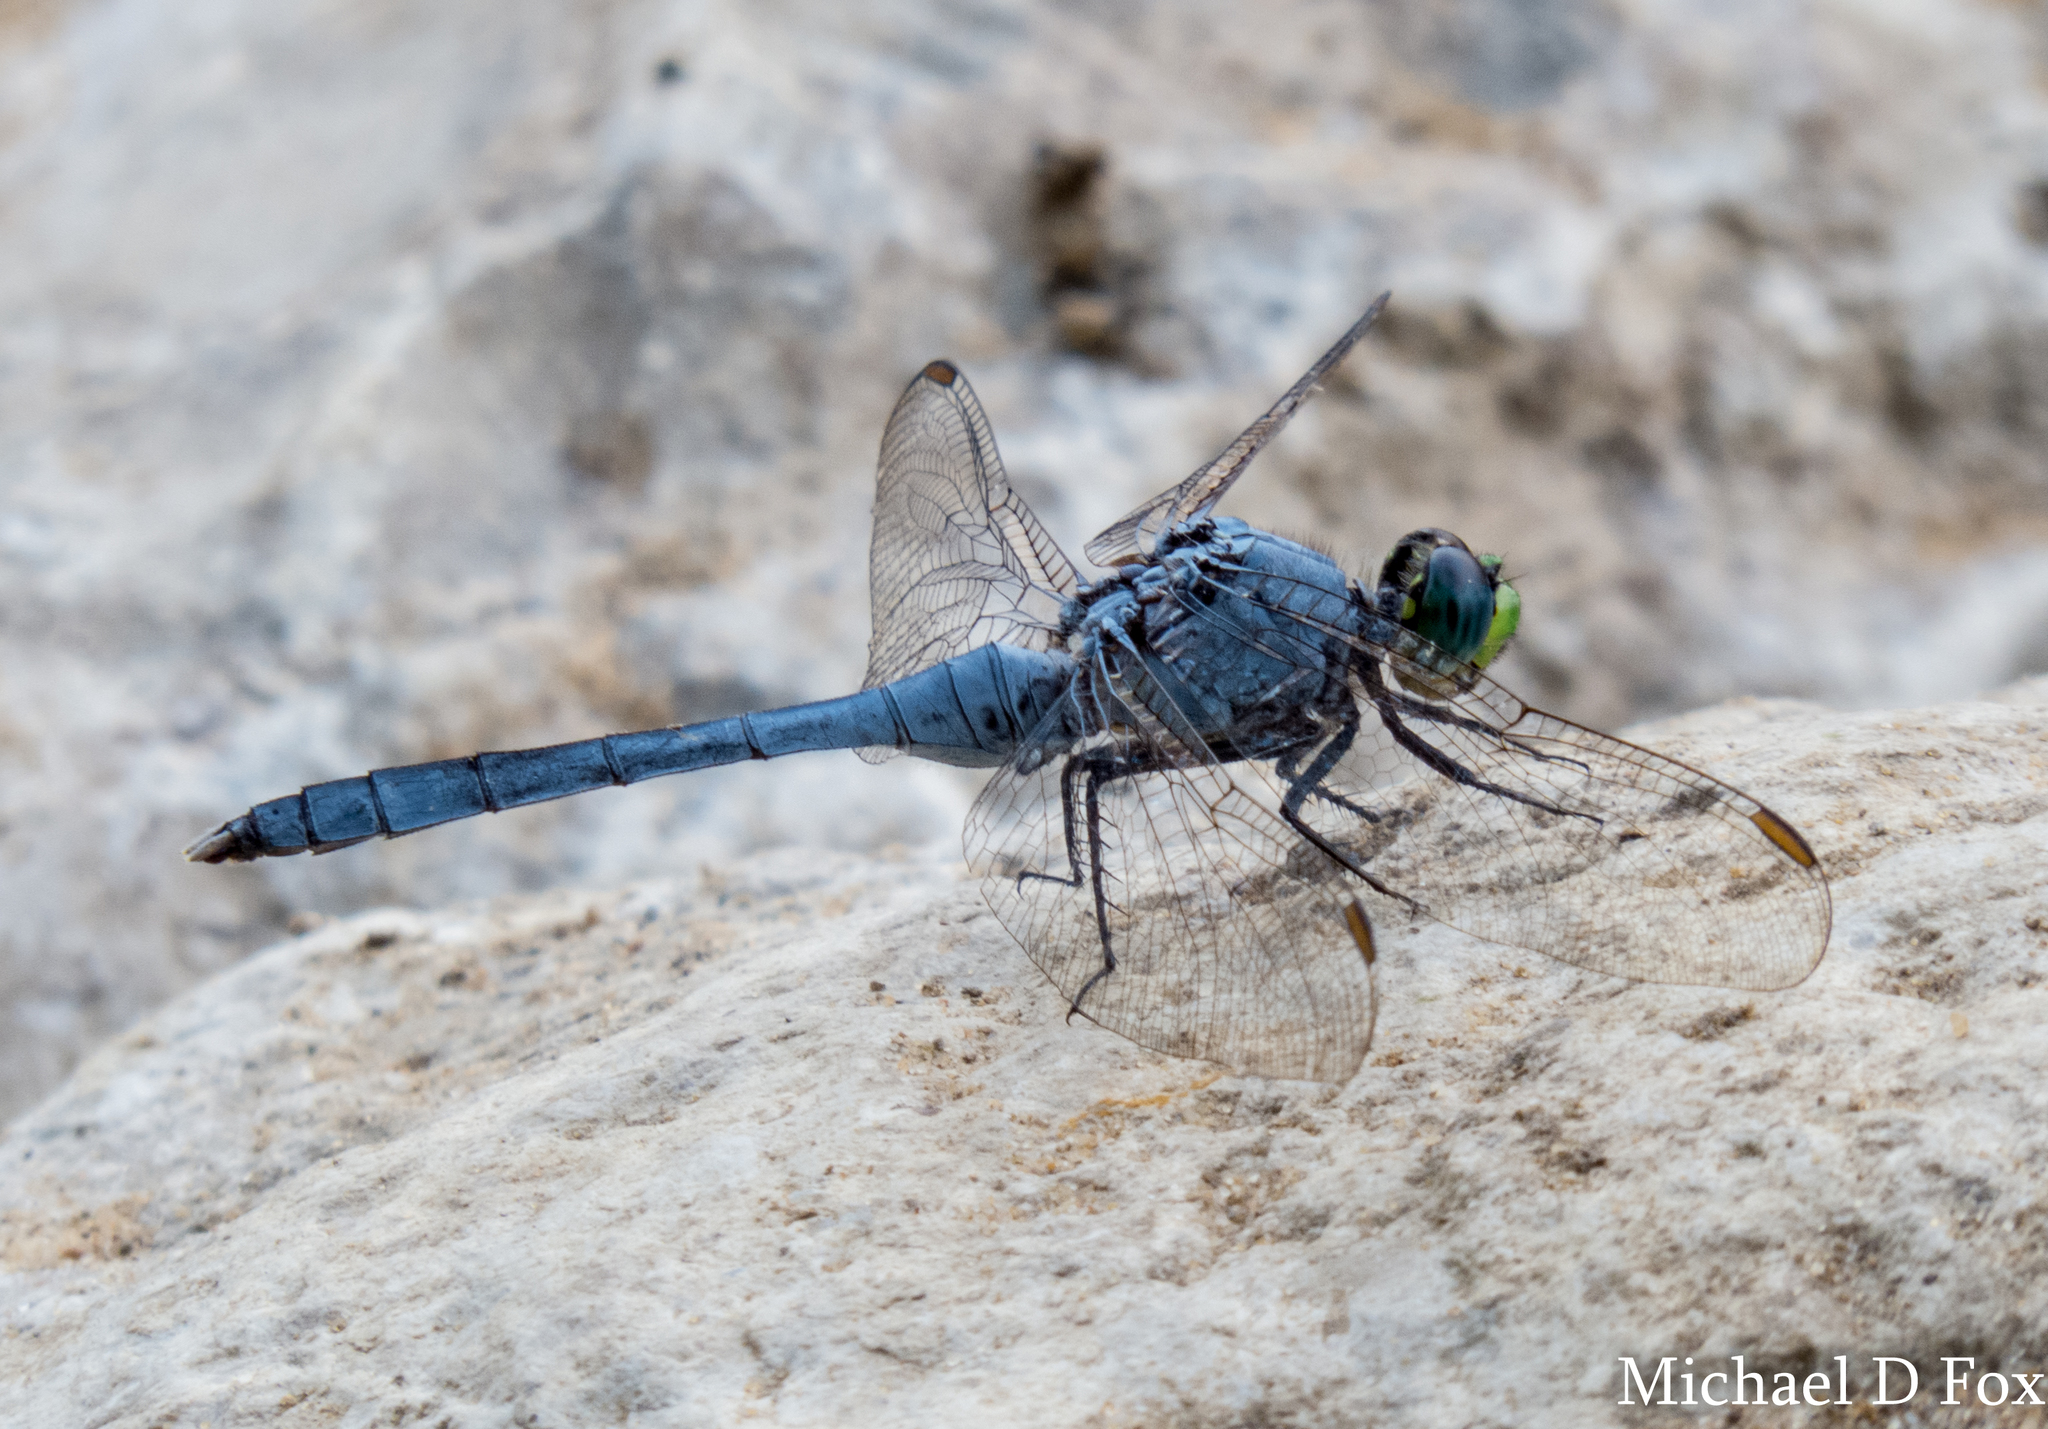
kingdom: Animalia
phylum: Arthropoda
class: Insecta
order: Odonata
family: Libellulidae
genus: Erythemis
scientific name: Erythemis simplicicollis
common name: Eastern pondhawk
